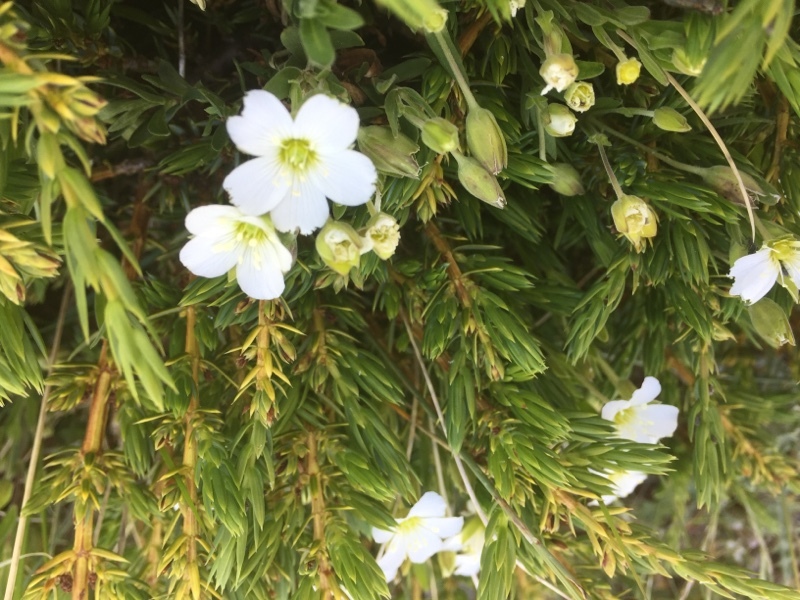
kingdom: Plantae
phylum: Tracheophyta
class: Pinopsida
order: Pinales
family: Cupressaceae
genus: Juniperus
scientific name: Juniperus communis
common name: Common juniper
